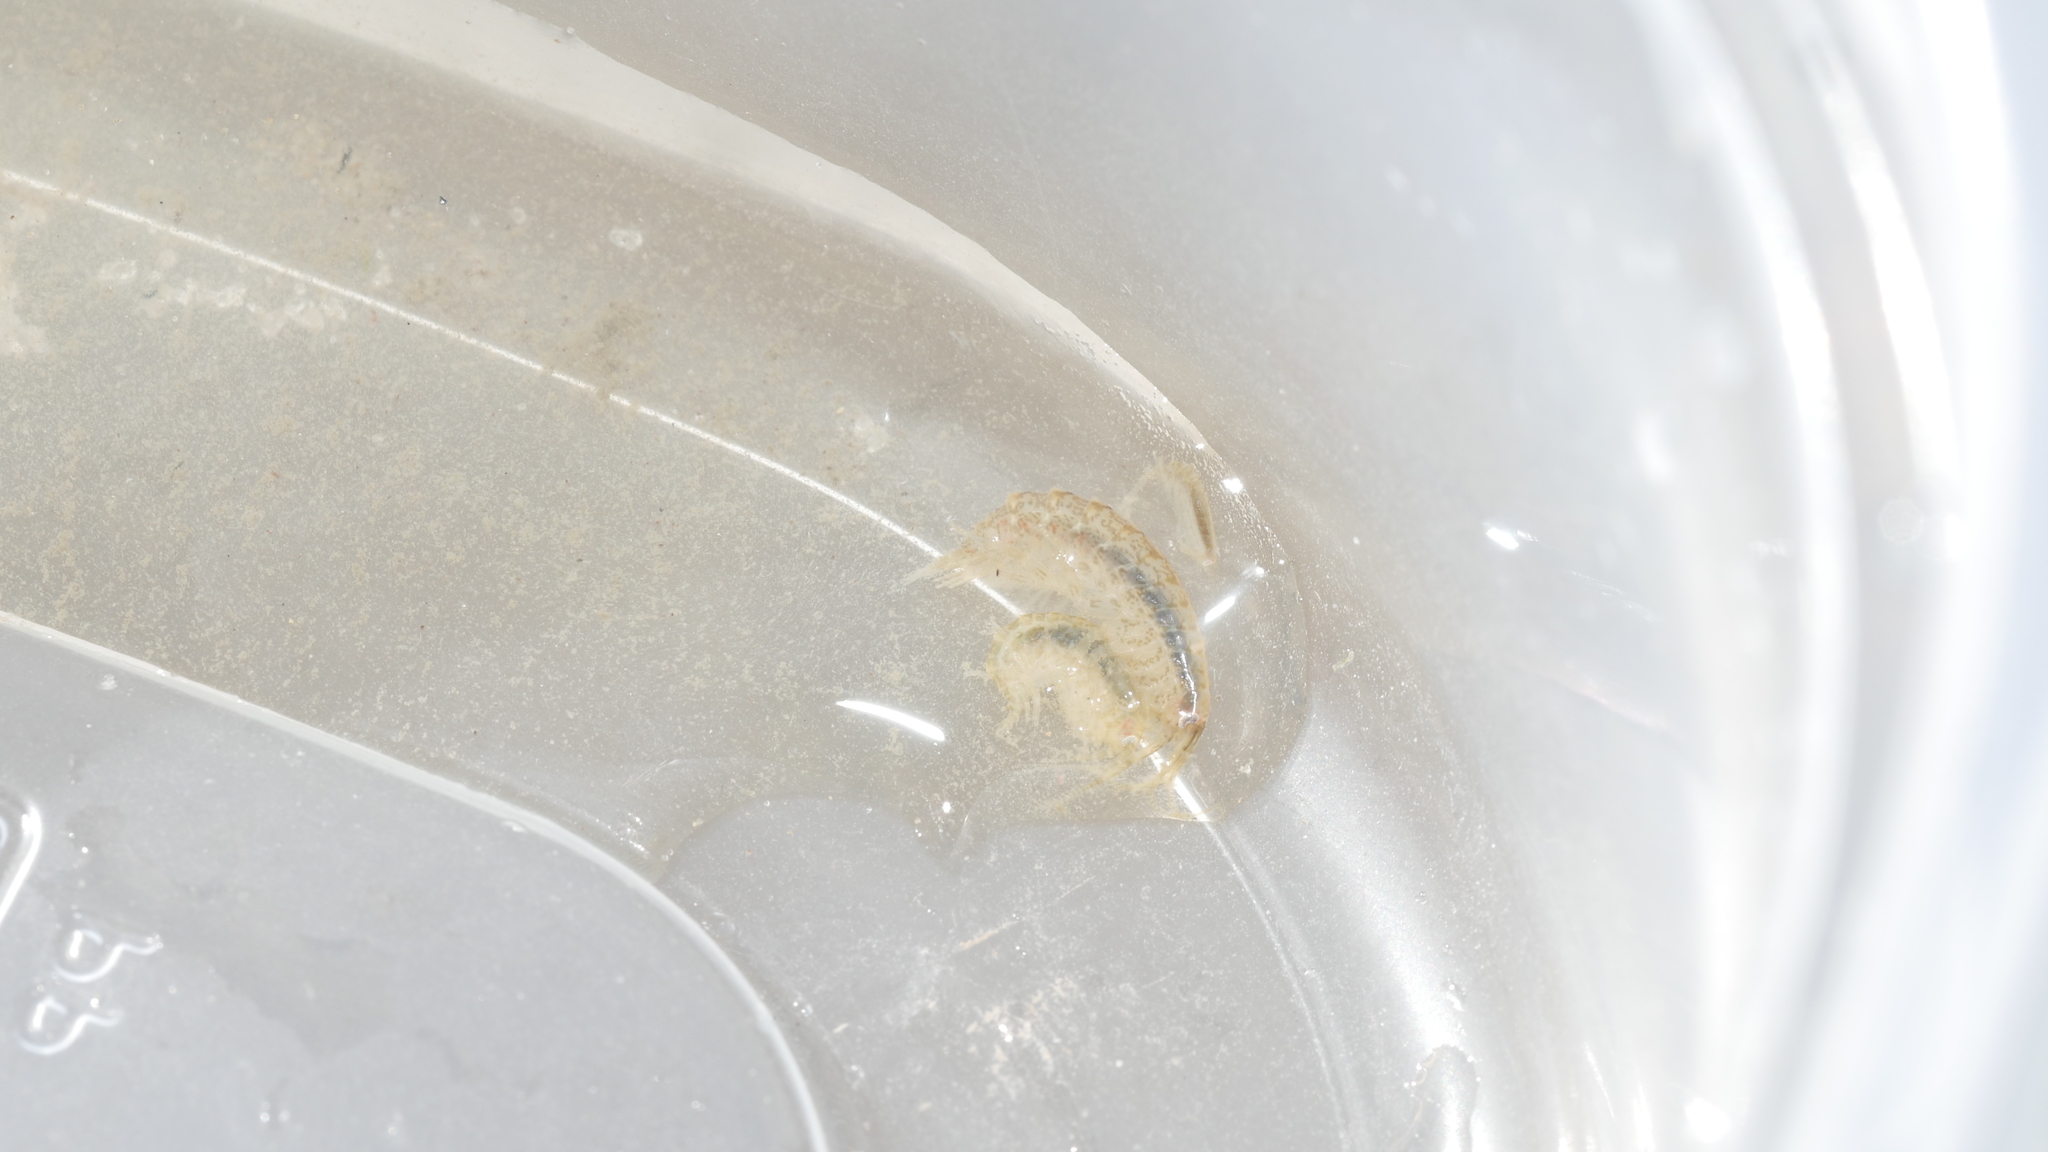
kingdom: Animalia
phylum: Arthropoda
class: Malacostraca
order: Amphipoda
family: Gammaridae
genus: Gammarus
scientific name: Gammarus mucronatus
